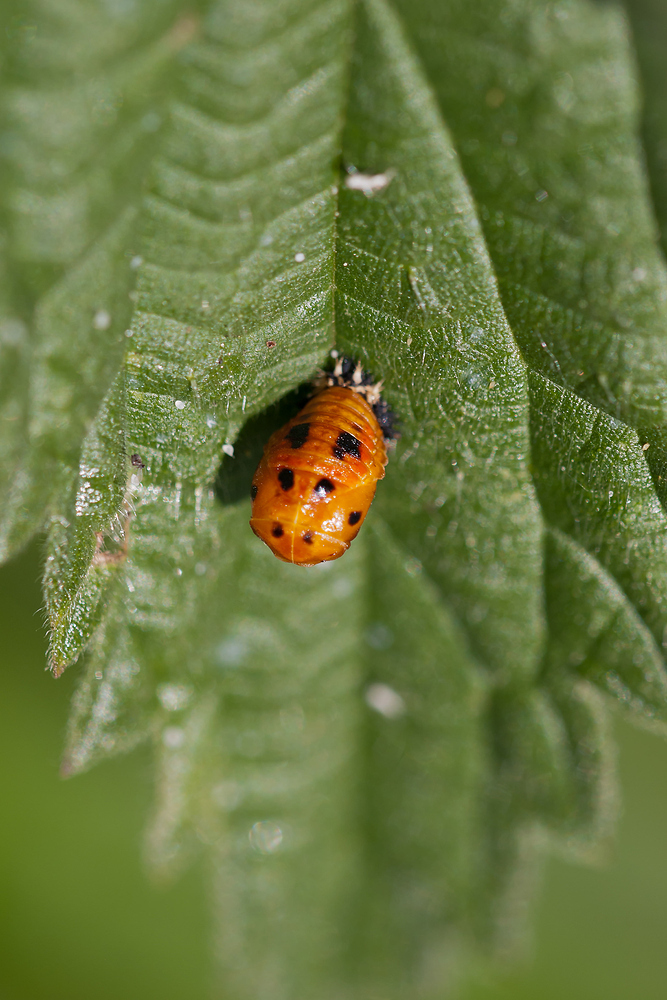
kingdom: Animalia
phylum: Arthropoda
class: Insecta
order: Coleoptera
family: Coccinellidae
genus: Harmonia
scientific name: Harmonia axyridis
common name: Harlequin ladybird
